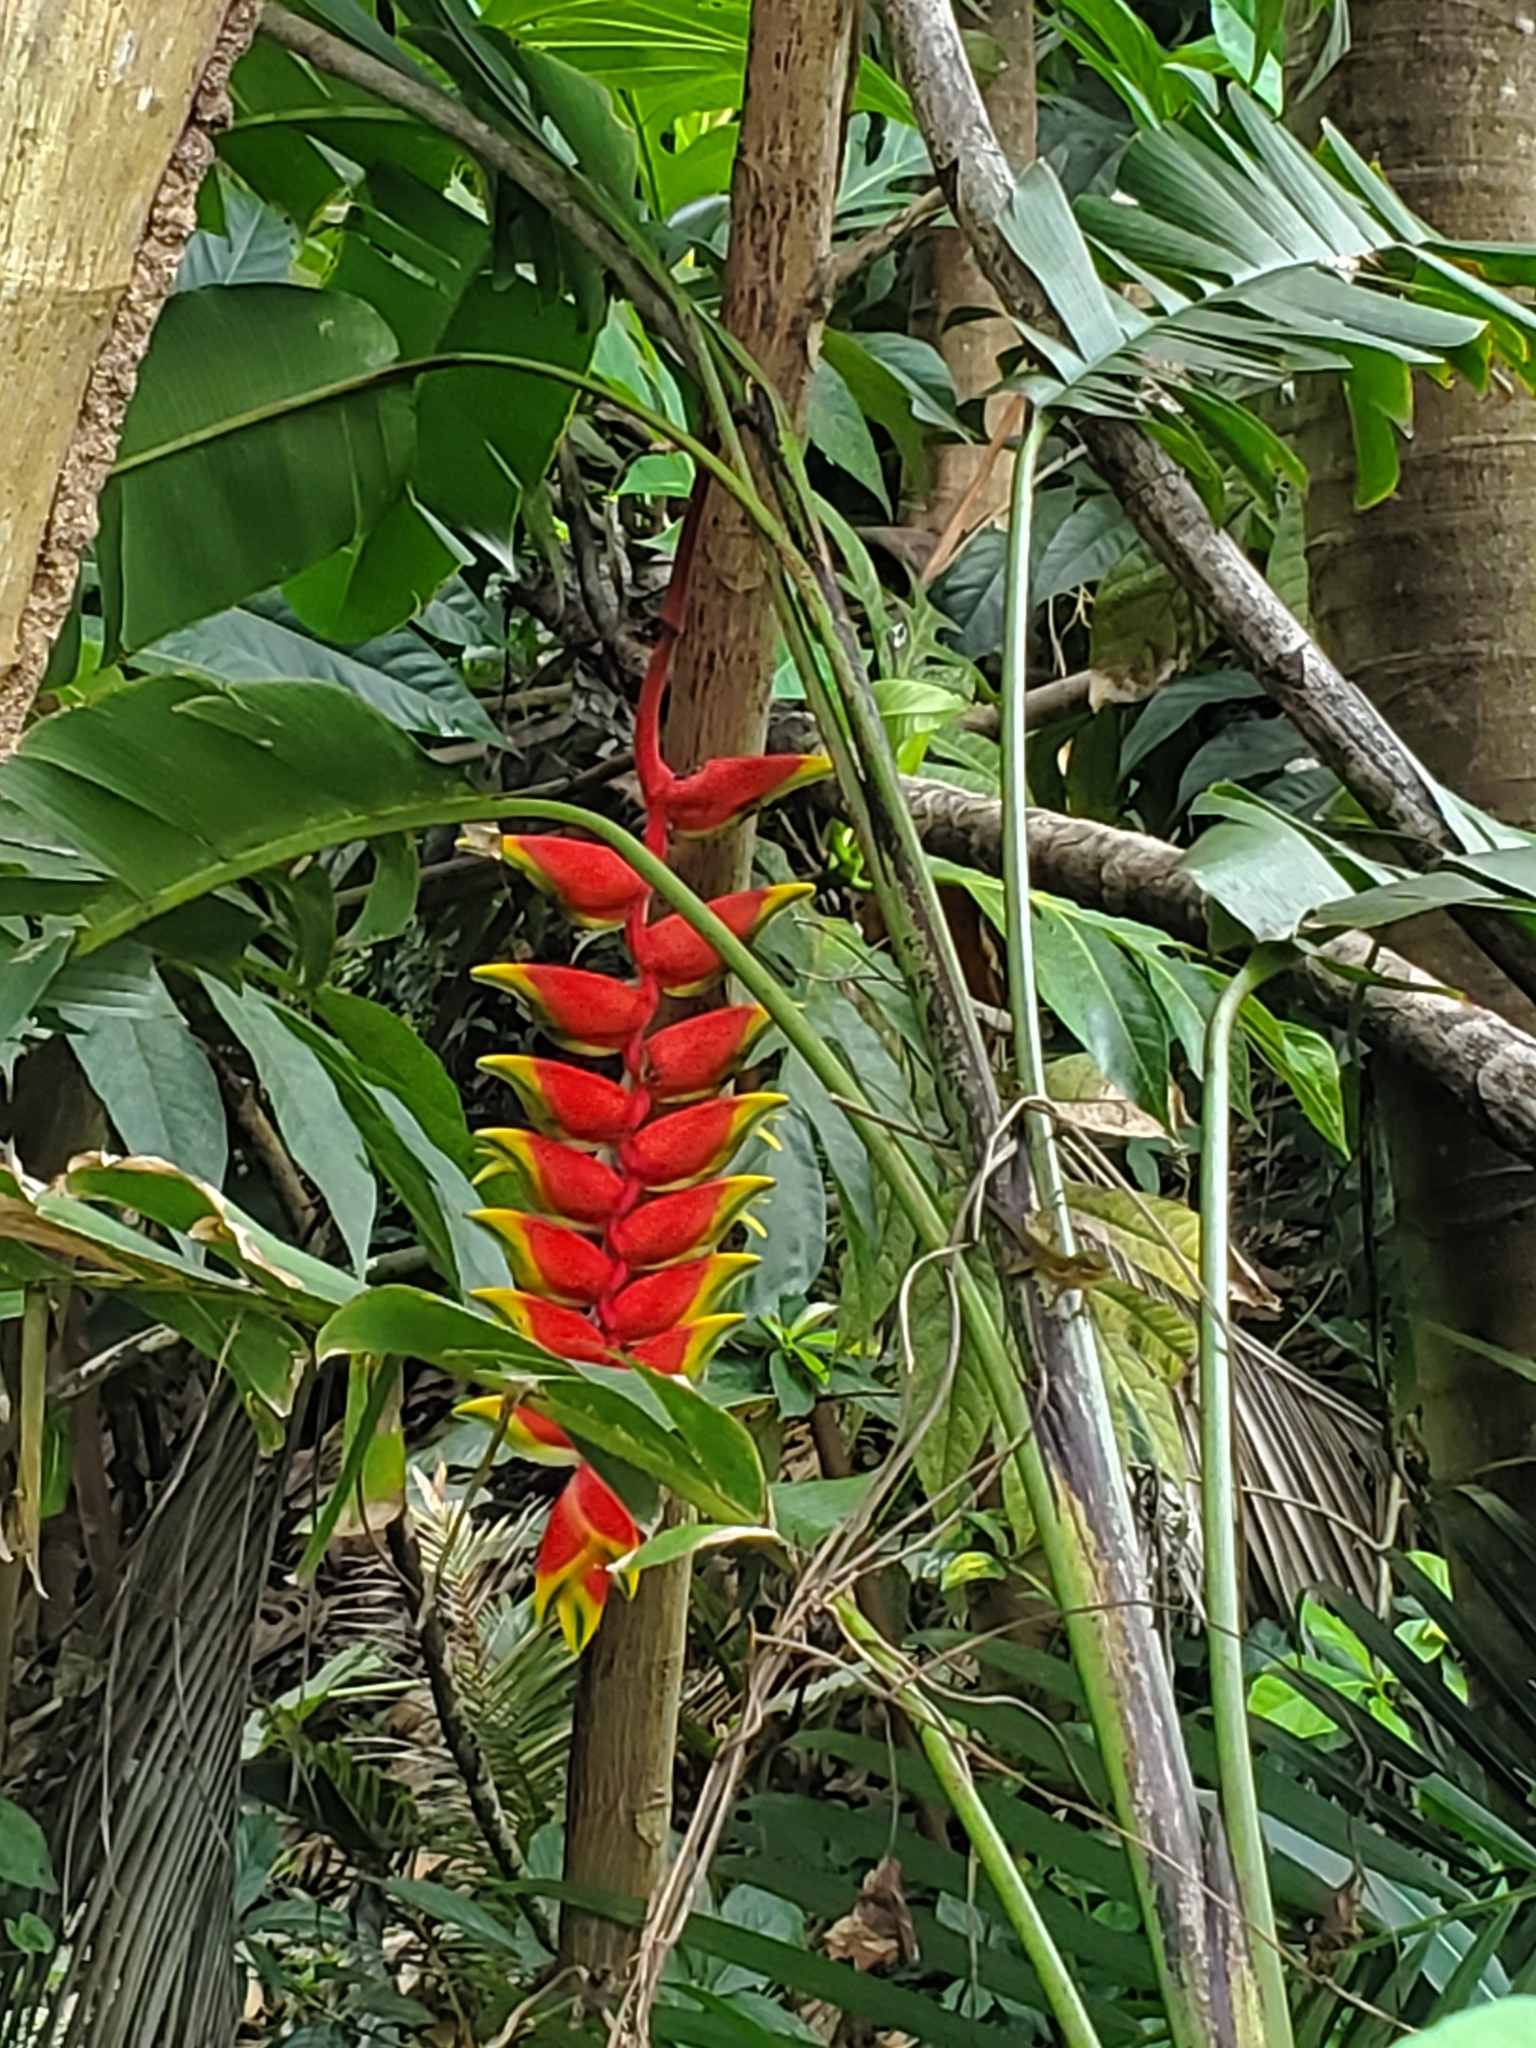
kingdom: Plantae
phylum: Tracheophyta
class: Liliopsida
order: Zingiberales
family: Heliconiaceae
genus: Heliconia
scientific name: Heliconia rostrata
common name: False bird of paradise
